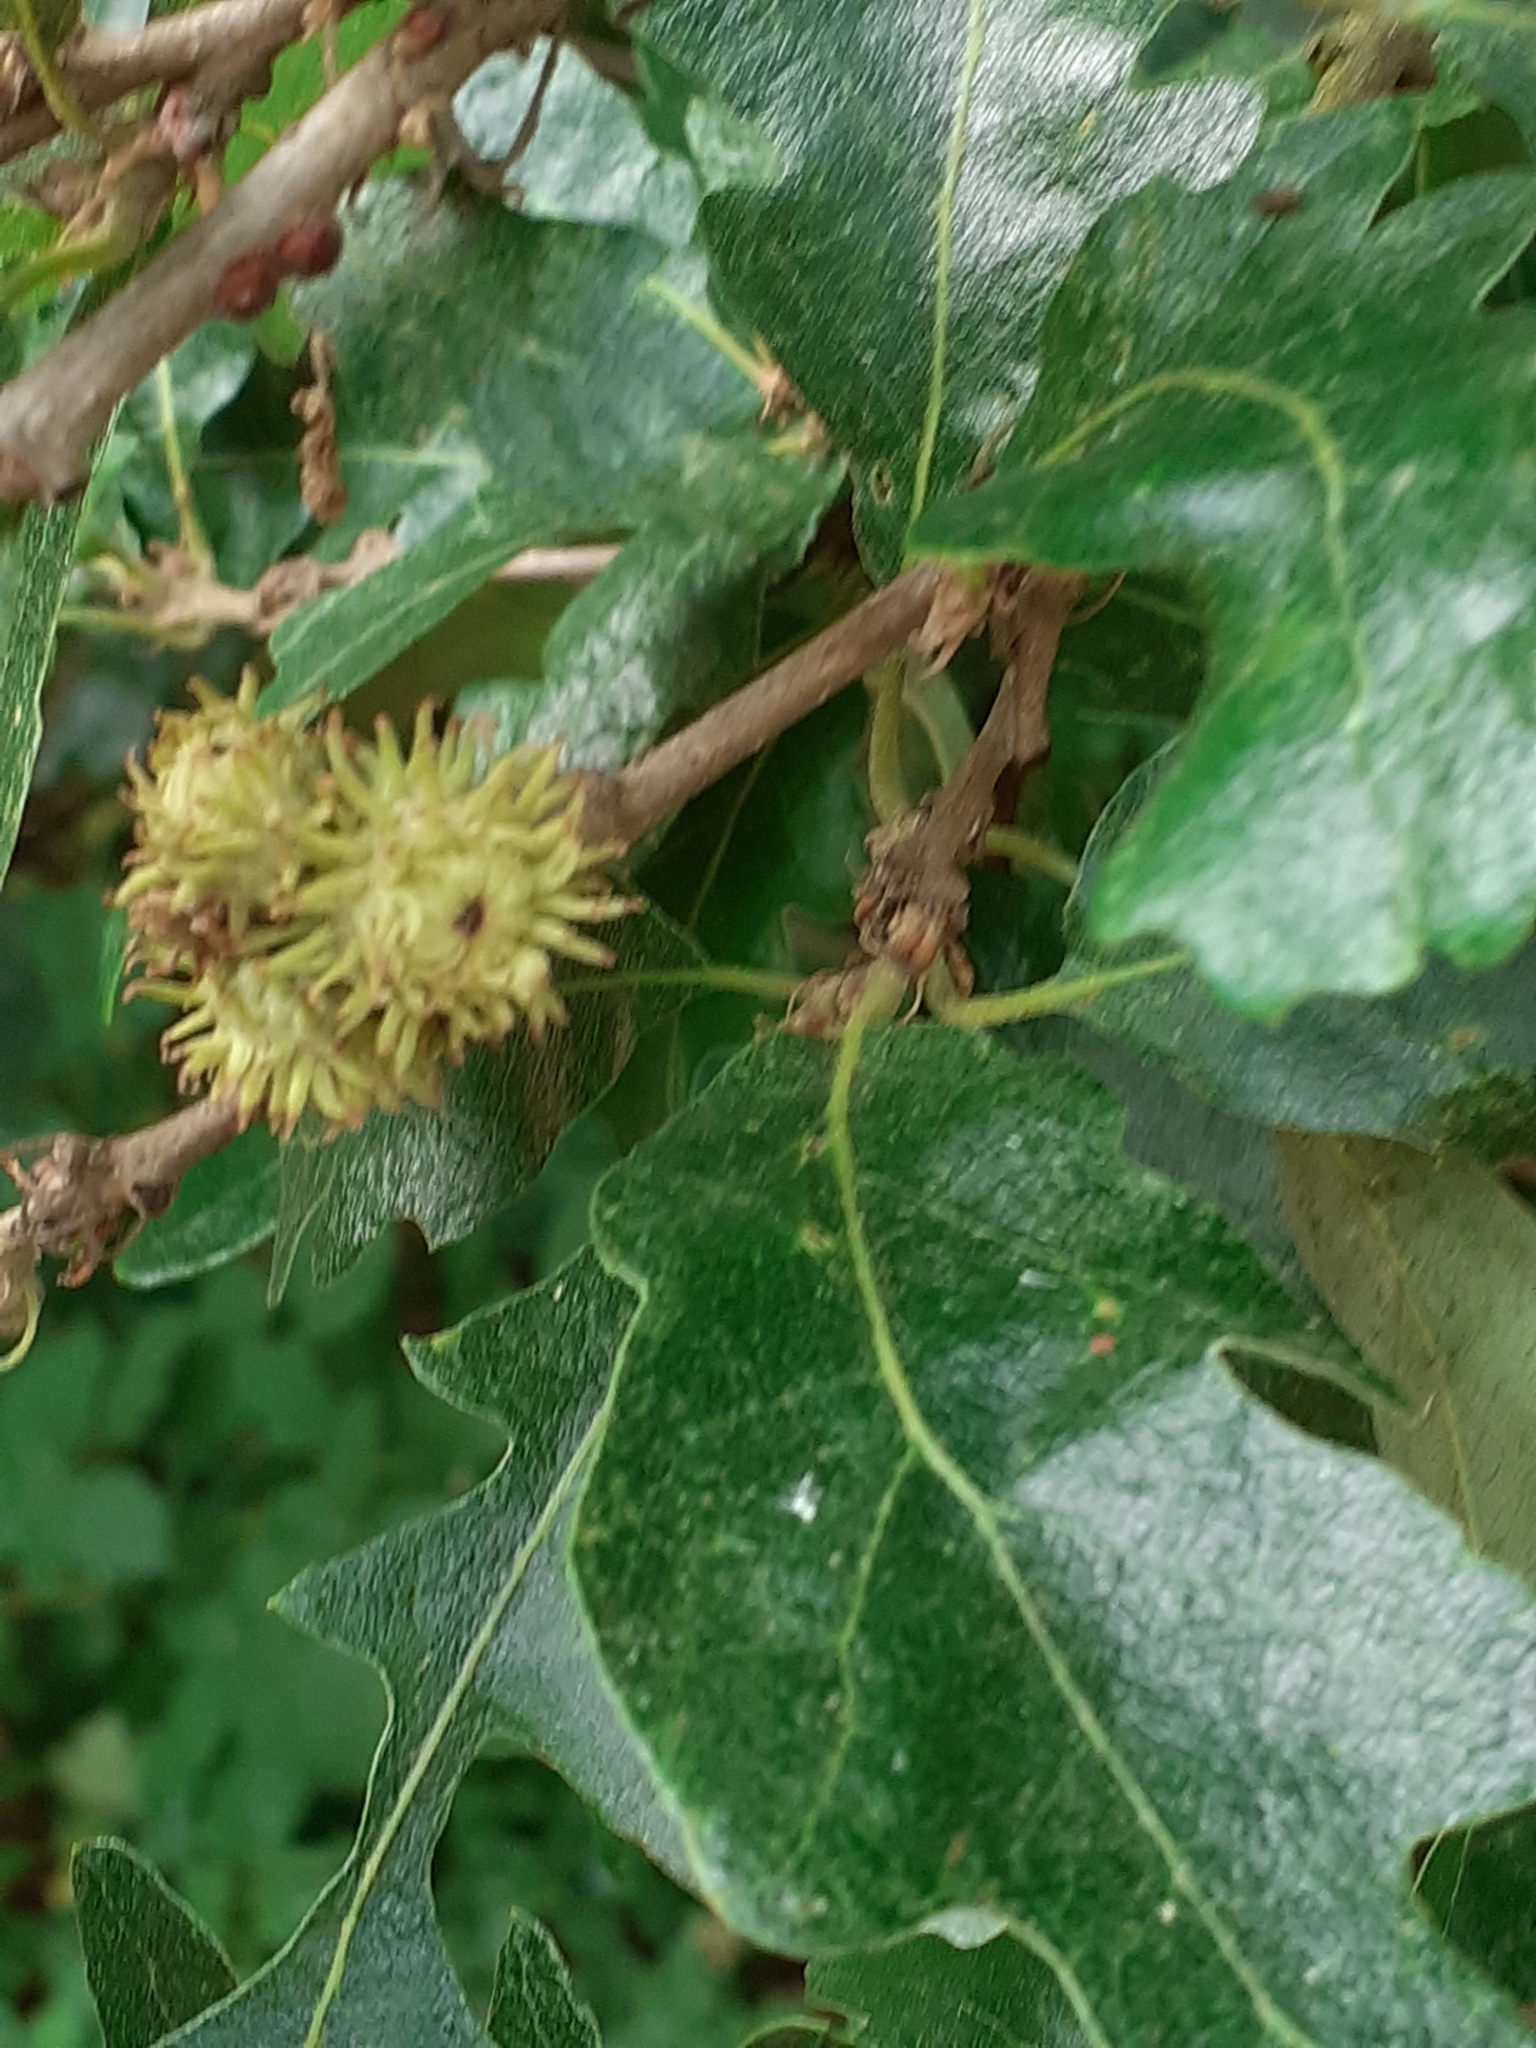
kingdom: Plantae
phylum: Tracheophyta
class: Magnoliopsida
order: Fagales
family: Fagaceae
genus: Quercus
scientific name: Quercus cerris
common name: Turkey oak
